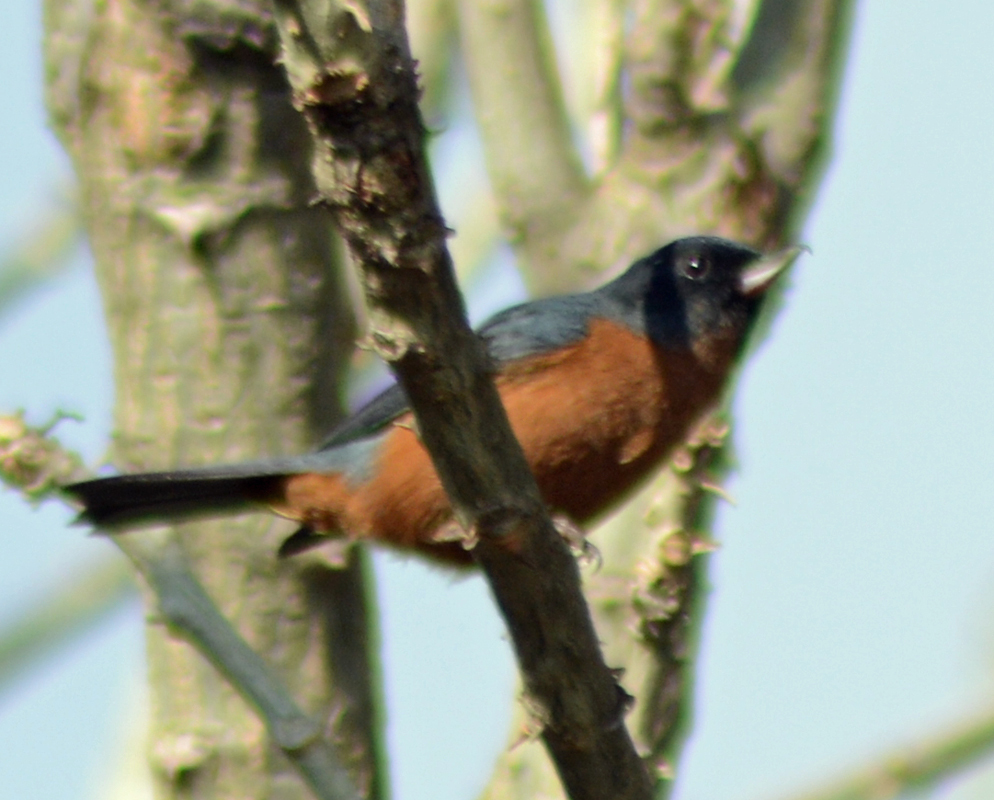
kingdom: Animalia
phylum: Chordata
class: Aves
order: Passeriformes
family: Thraupidae
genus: Diglossa
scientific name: Diglossa baritula
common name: Cinnamon-bellied flowerpiercer
